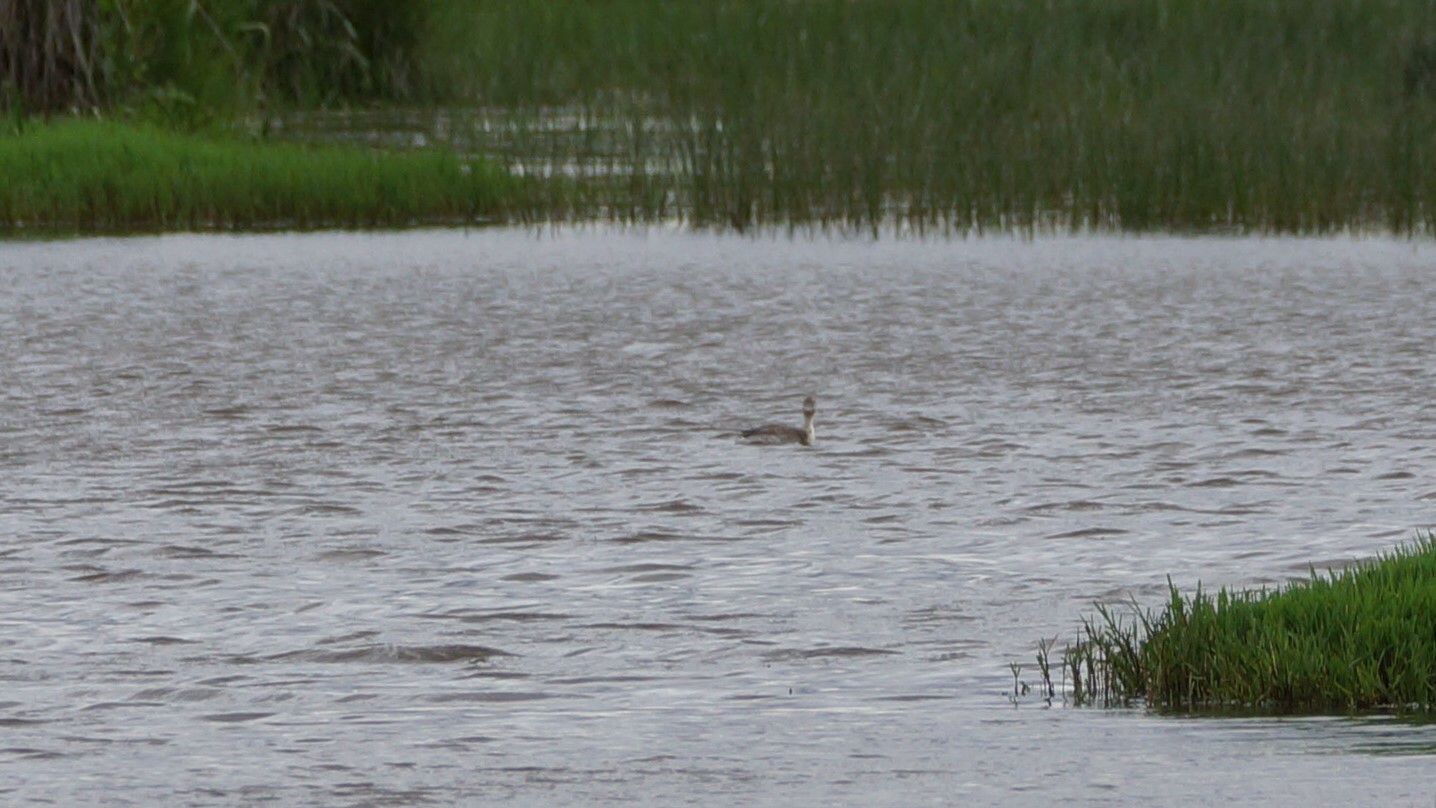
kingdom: Animalia
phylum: Chordata
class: Aves
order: Podicipediformes
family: Podicipedidae
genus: Poliocephalus
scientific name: Poliocephalus poliocephalus
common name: Hoary-headed grebe
